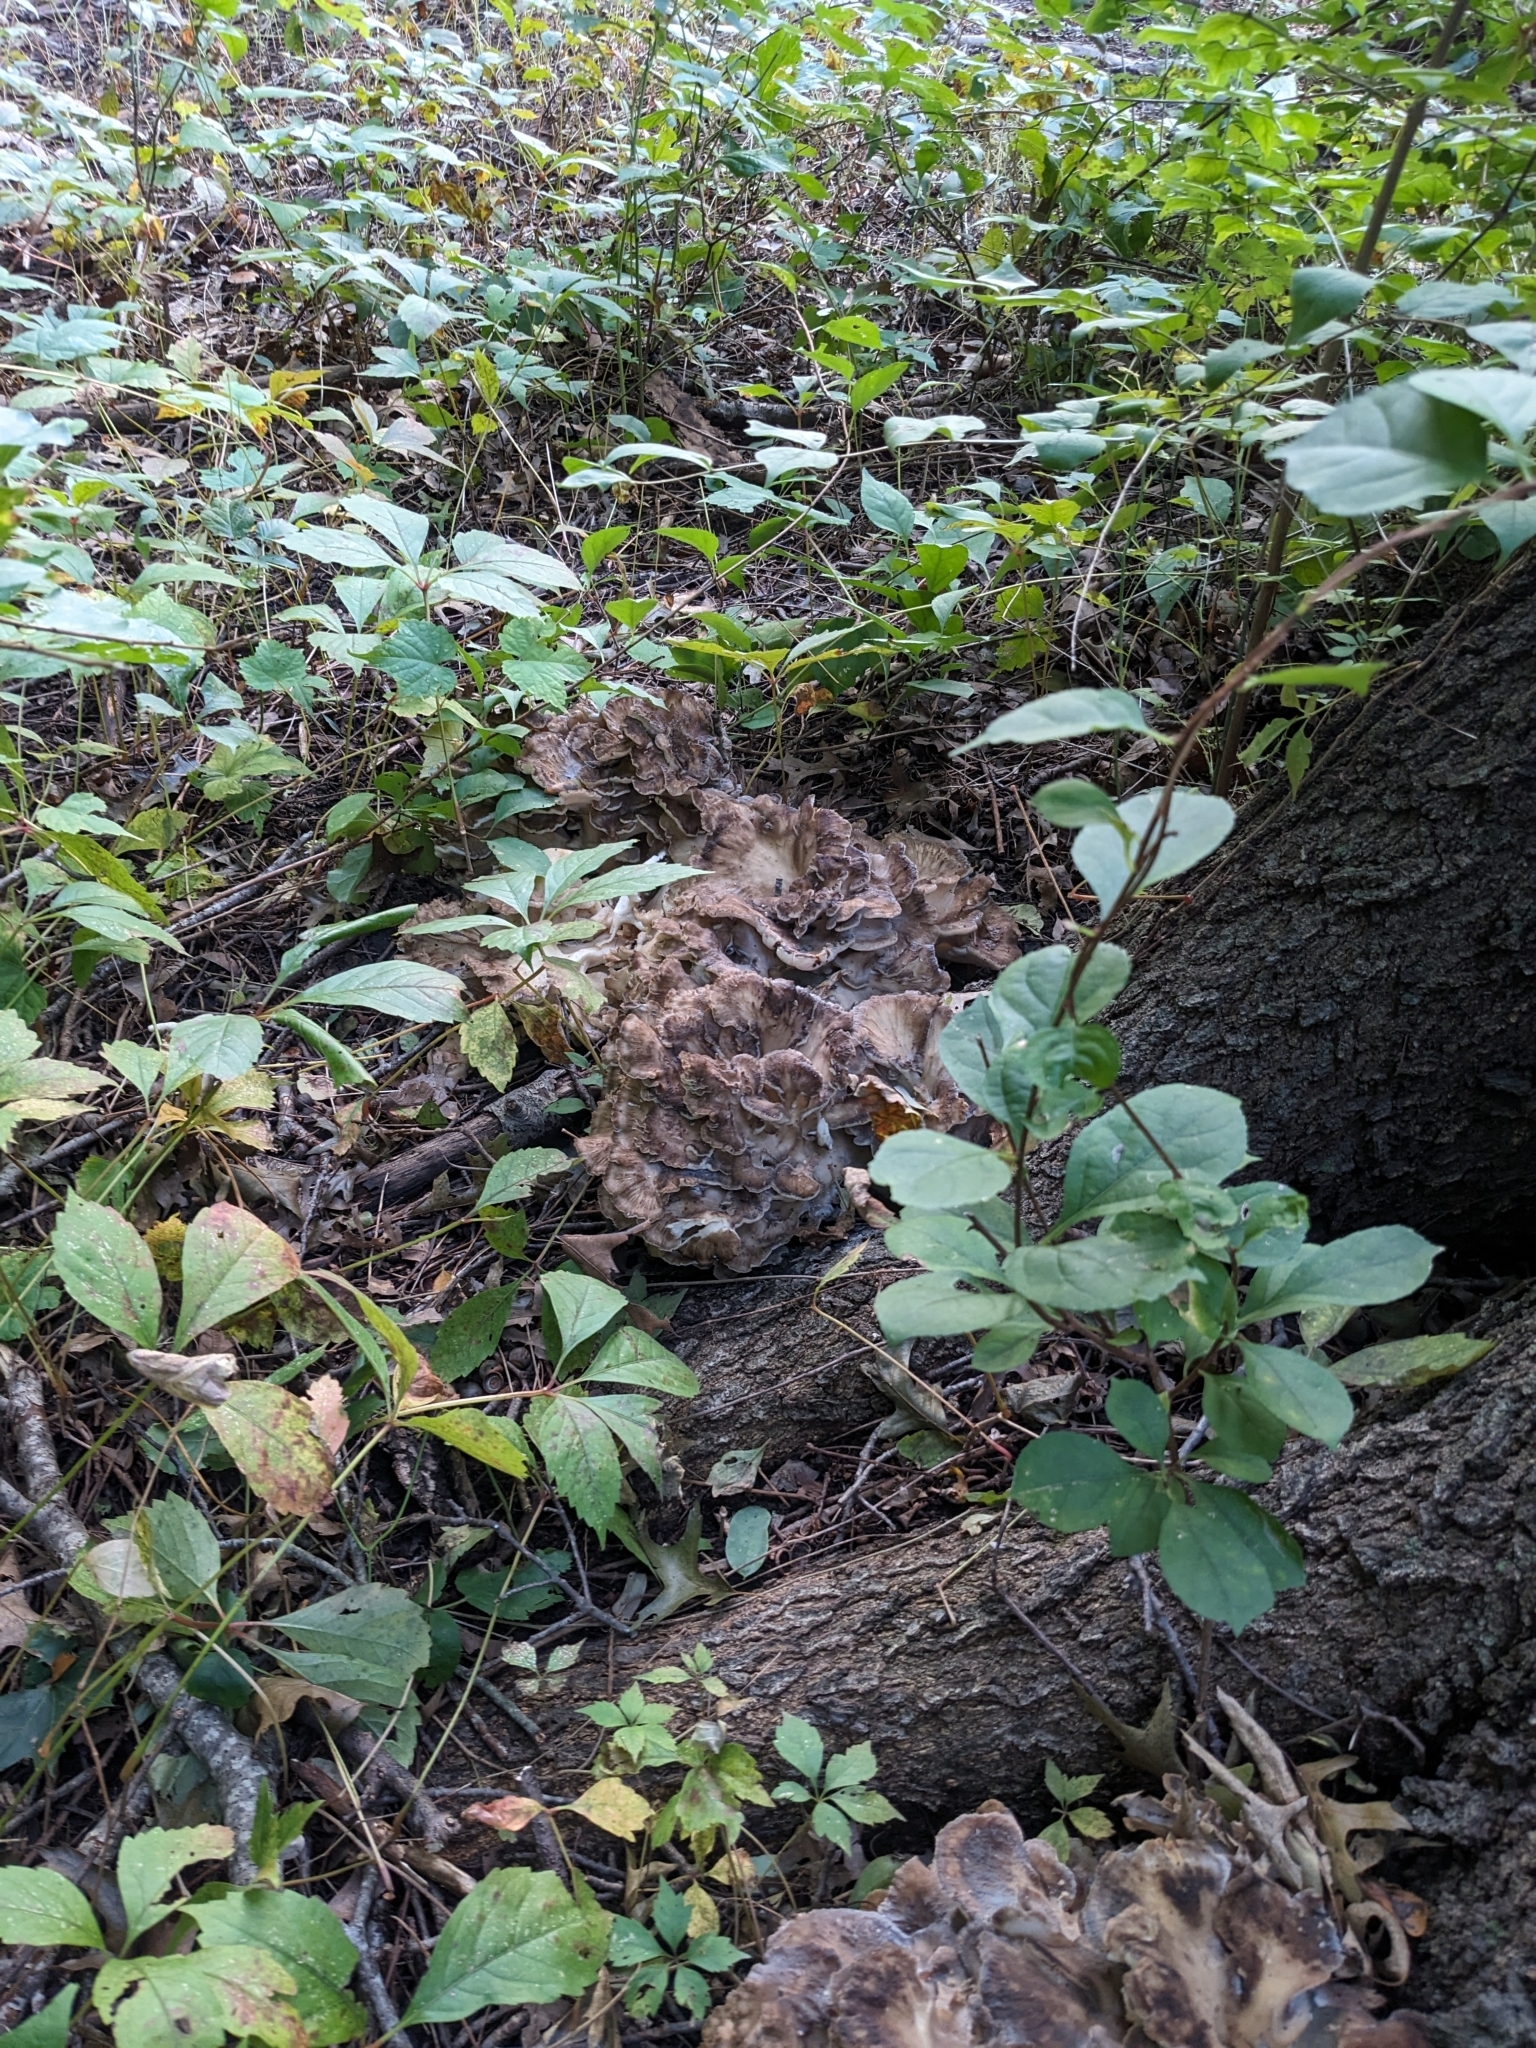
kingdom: Fungi
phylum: Basidiomycota
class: Agaricomycetes
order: Polyporales
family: Grifolaceae
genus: Grifola
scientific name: Grifola frondosa
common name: Hen of the woods
